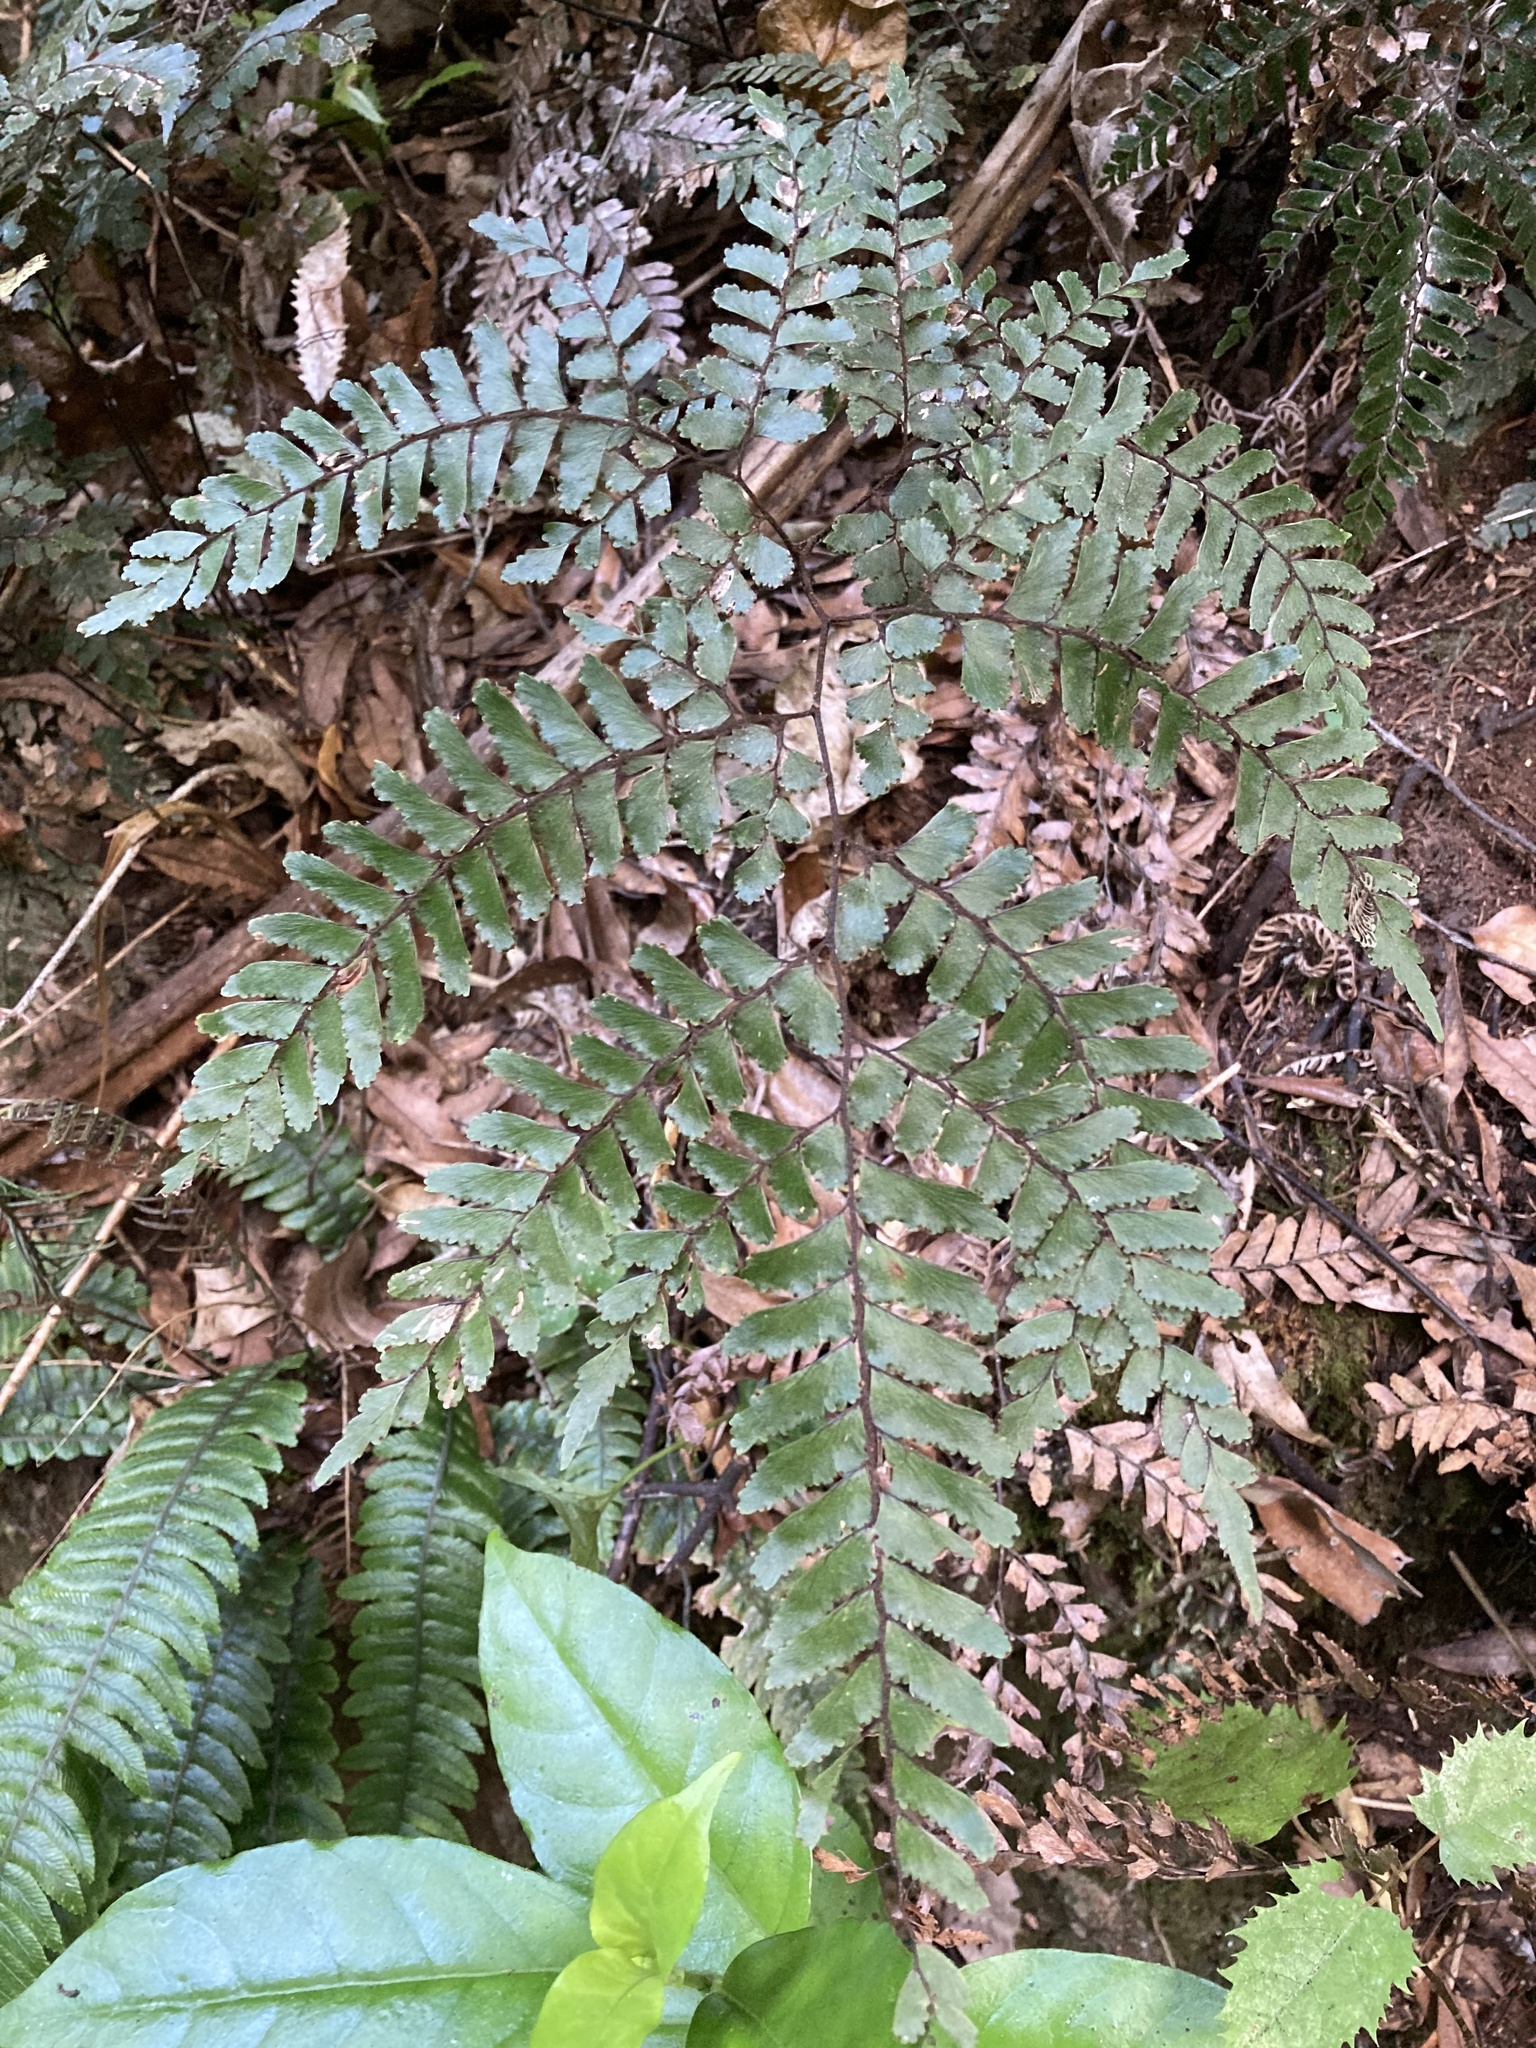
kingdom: Plantae
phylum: Tracheophyta
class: Polypodiopsida
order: Polypodiales
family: Pteridaceae
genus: Adiantum
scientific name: Adiantum fulvum
